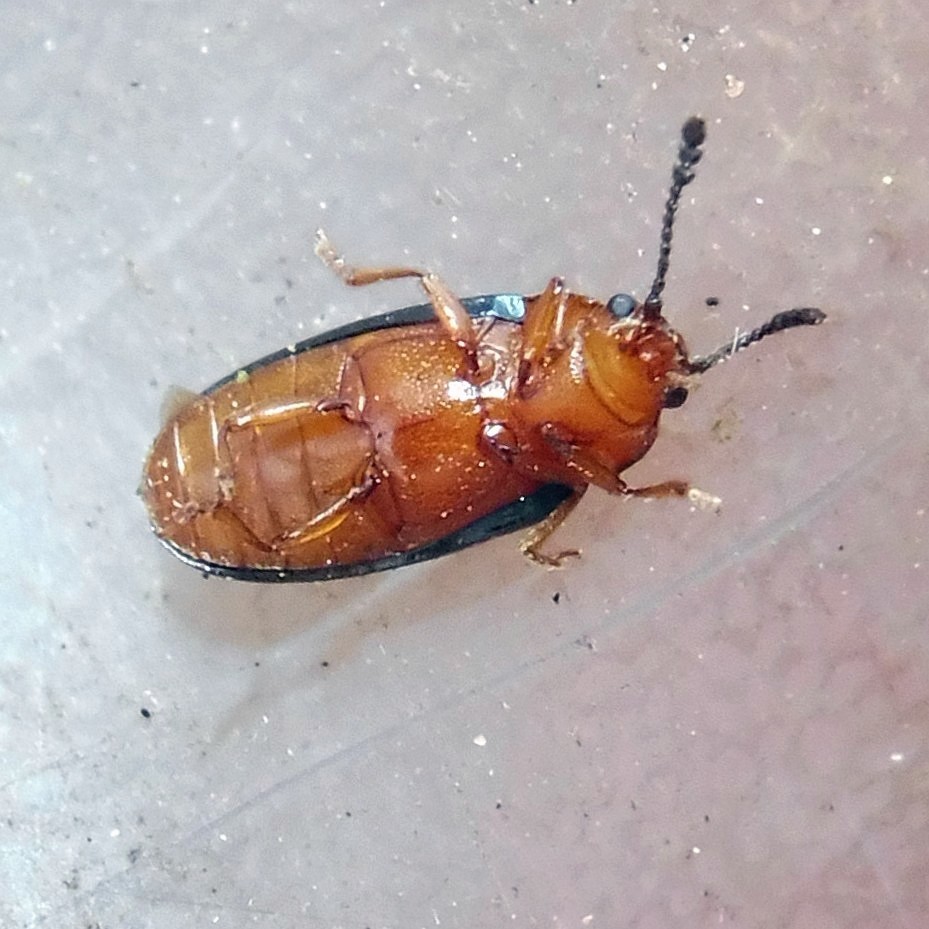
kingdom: Animalia
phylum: Arthropoda
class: Insecta
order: Coleoptera
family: Erotylidae
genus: Triplax
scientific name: Triplax aenea
